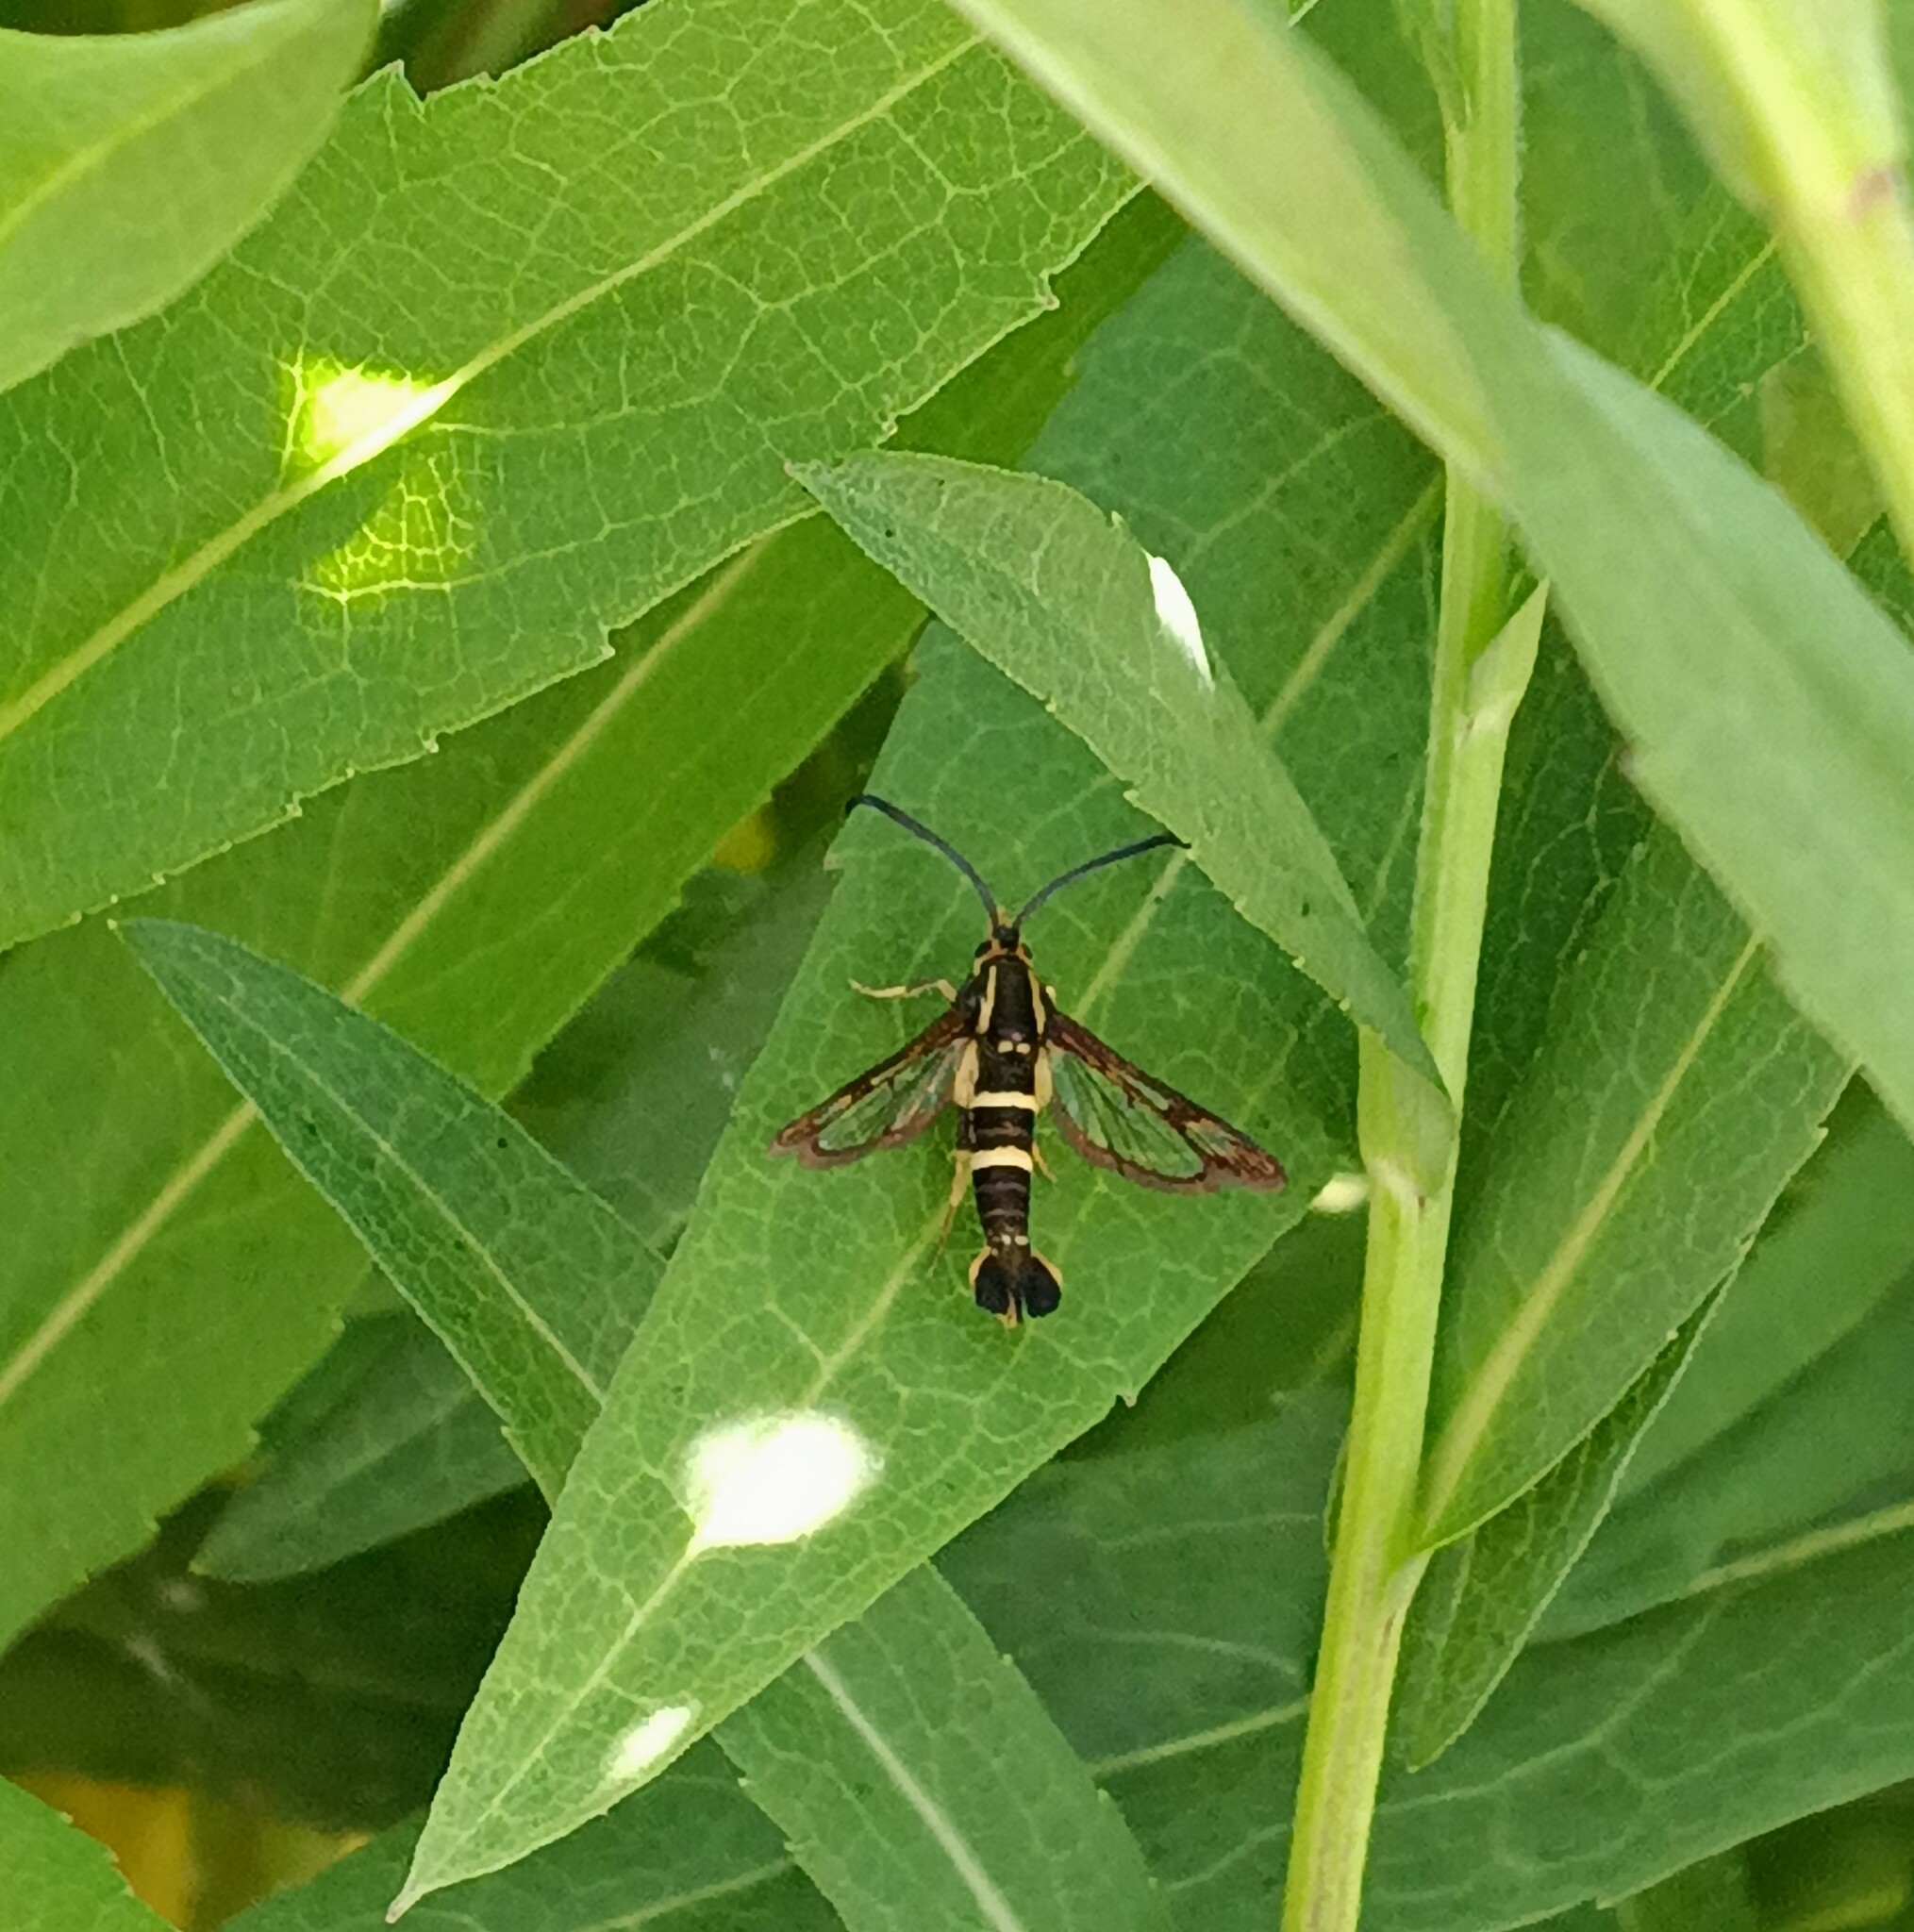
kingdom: Animalia
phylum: Arthropoda
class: Insecta
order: Lepidoptera
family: Sesiidae
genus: Synanthedon
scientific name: Synanthedon bibionipennis
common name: Strawberry crown moth
